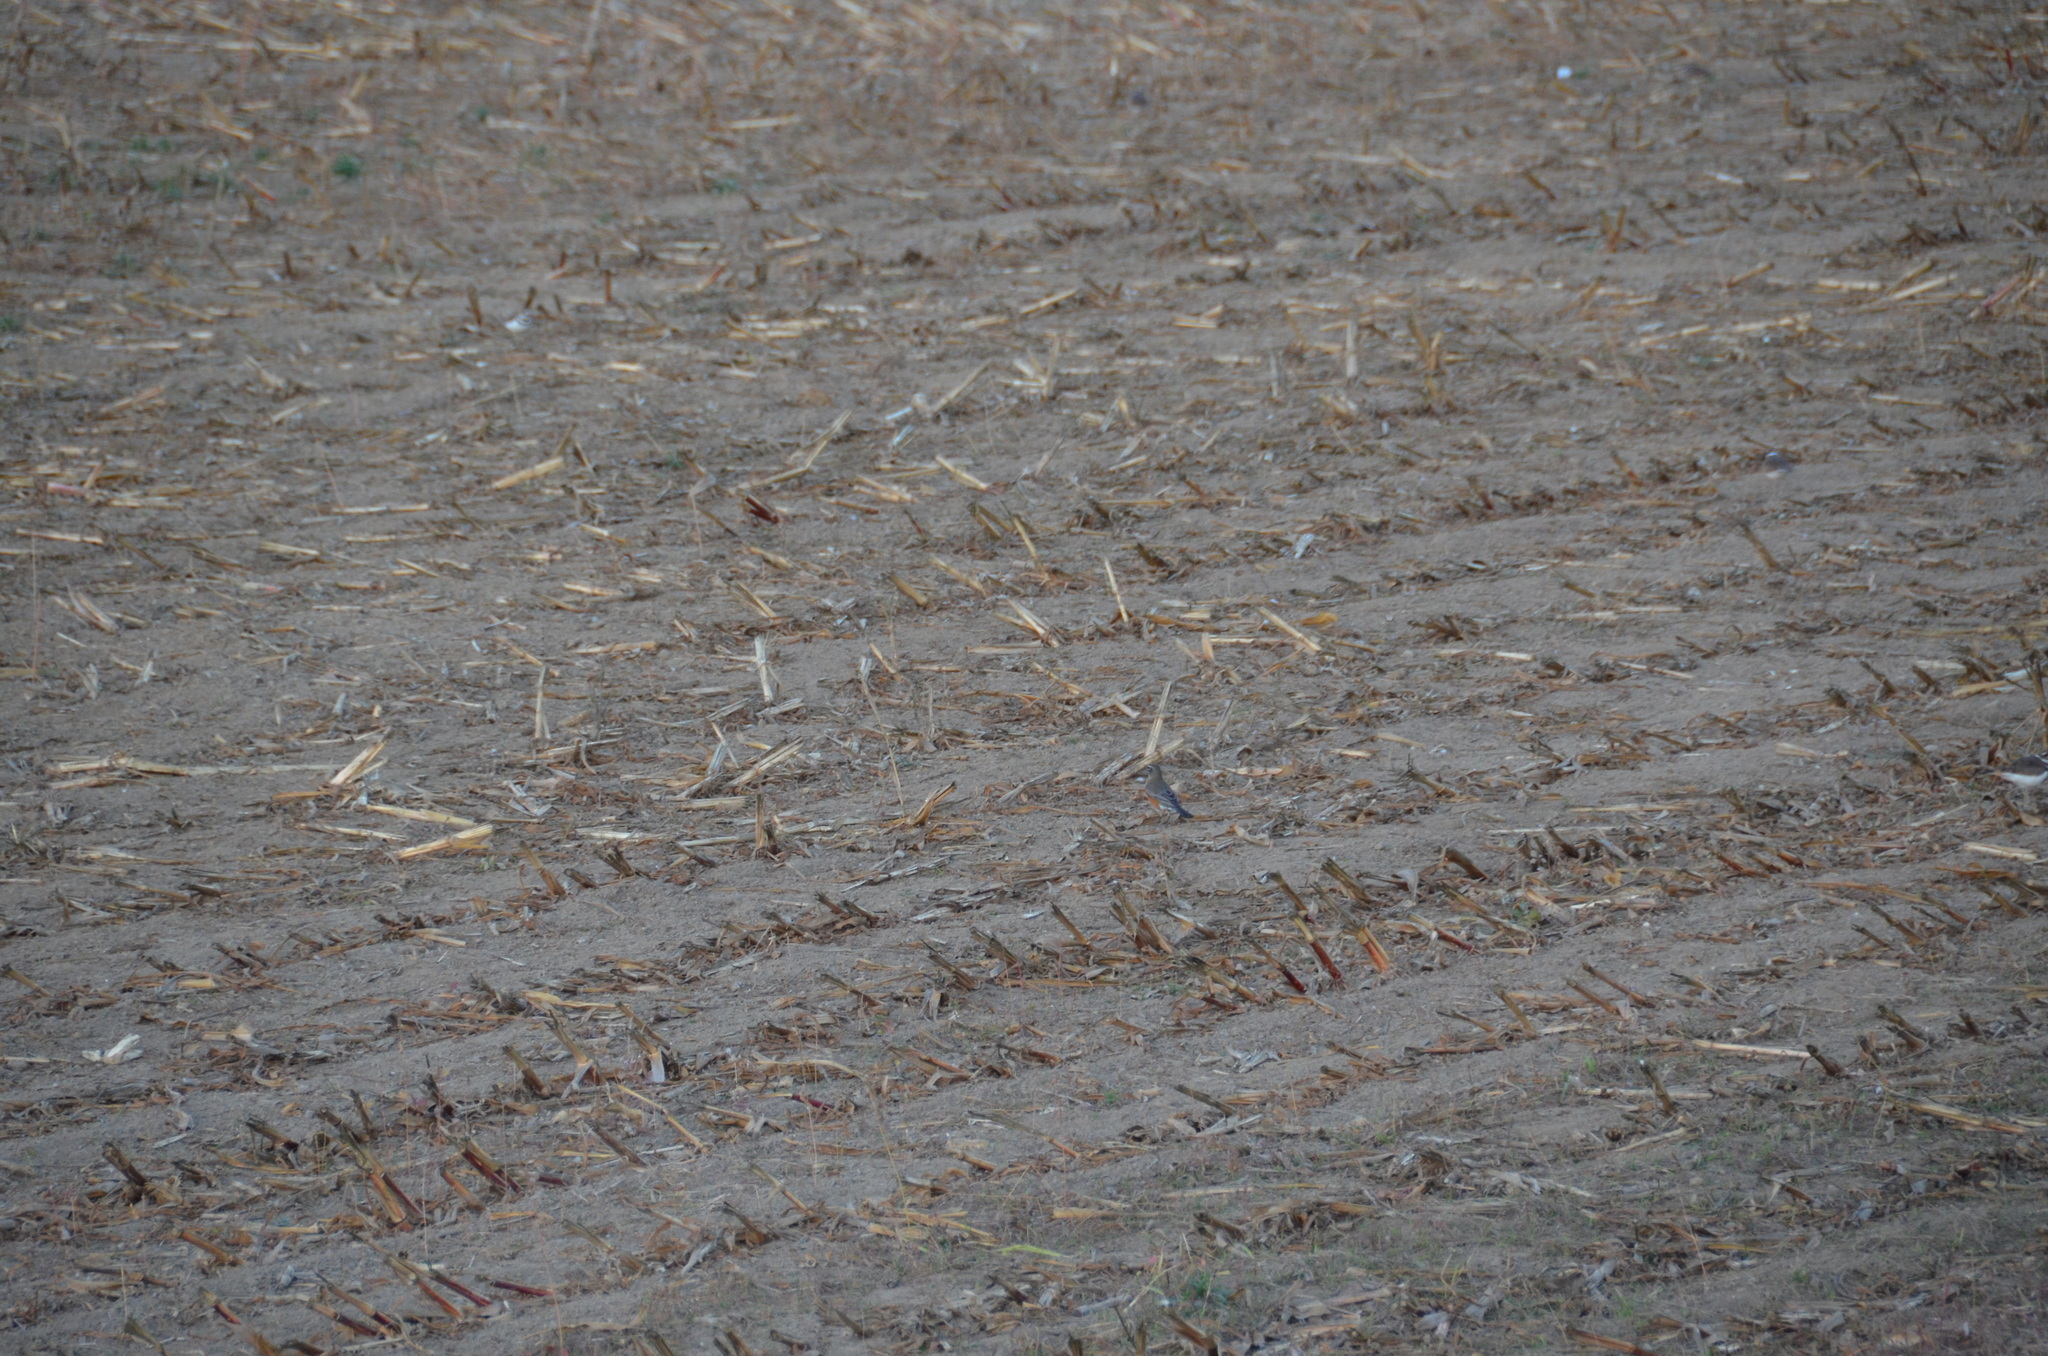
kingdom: Animalia
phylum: Chordata
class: Aves
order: Passeriformes
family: Turdidae
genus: Turdus
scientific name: Turdus migratorius
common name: American robin
